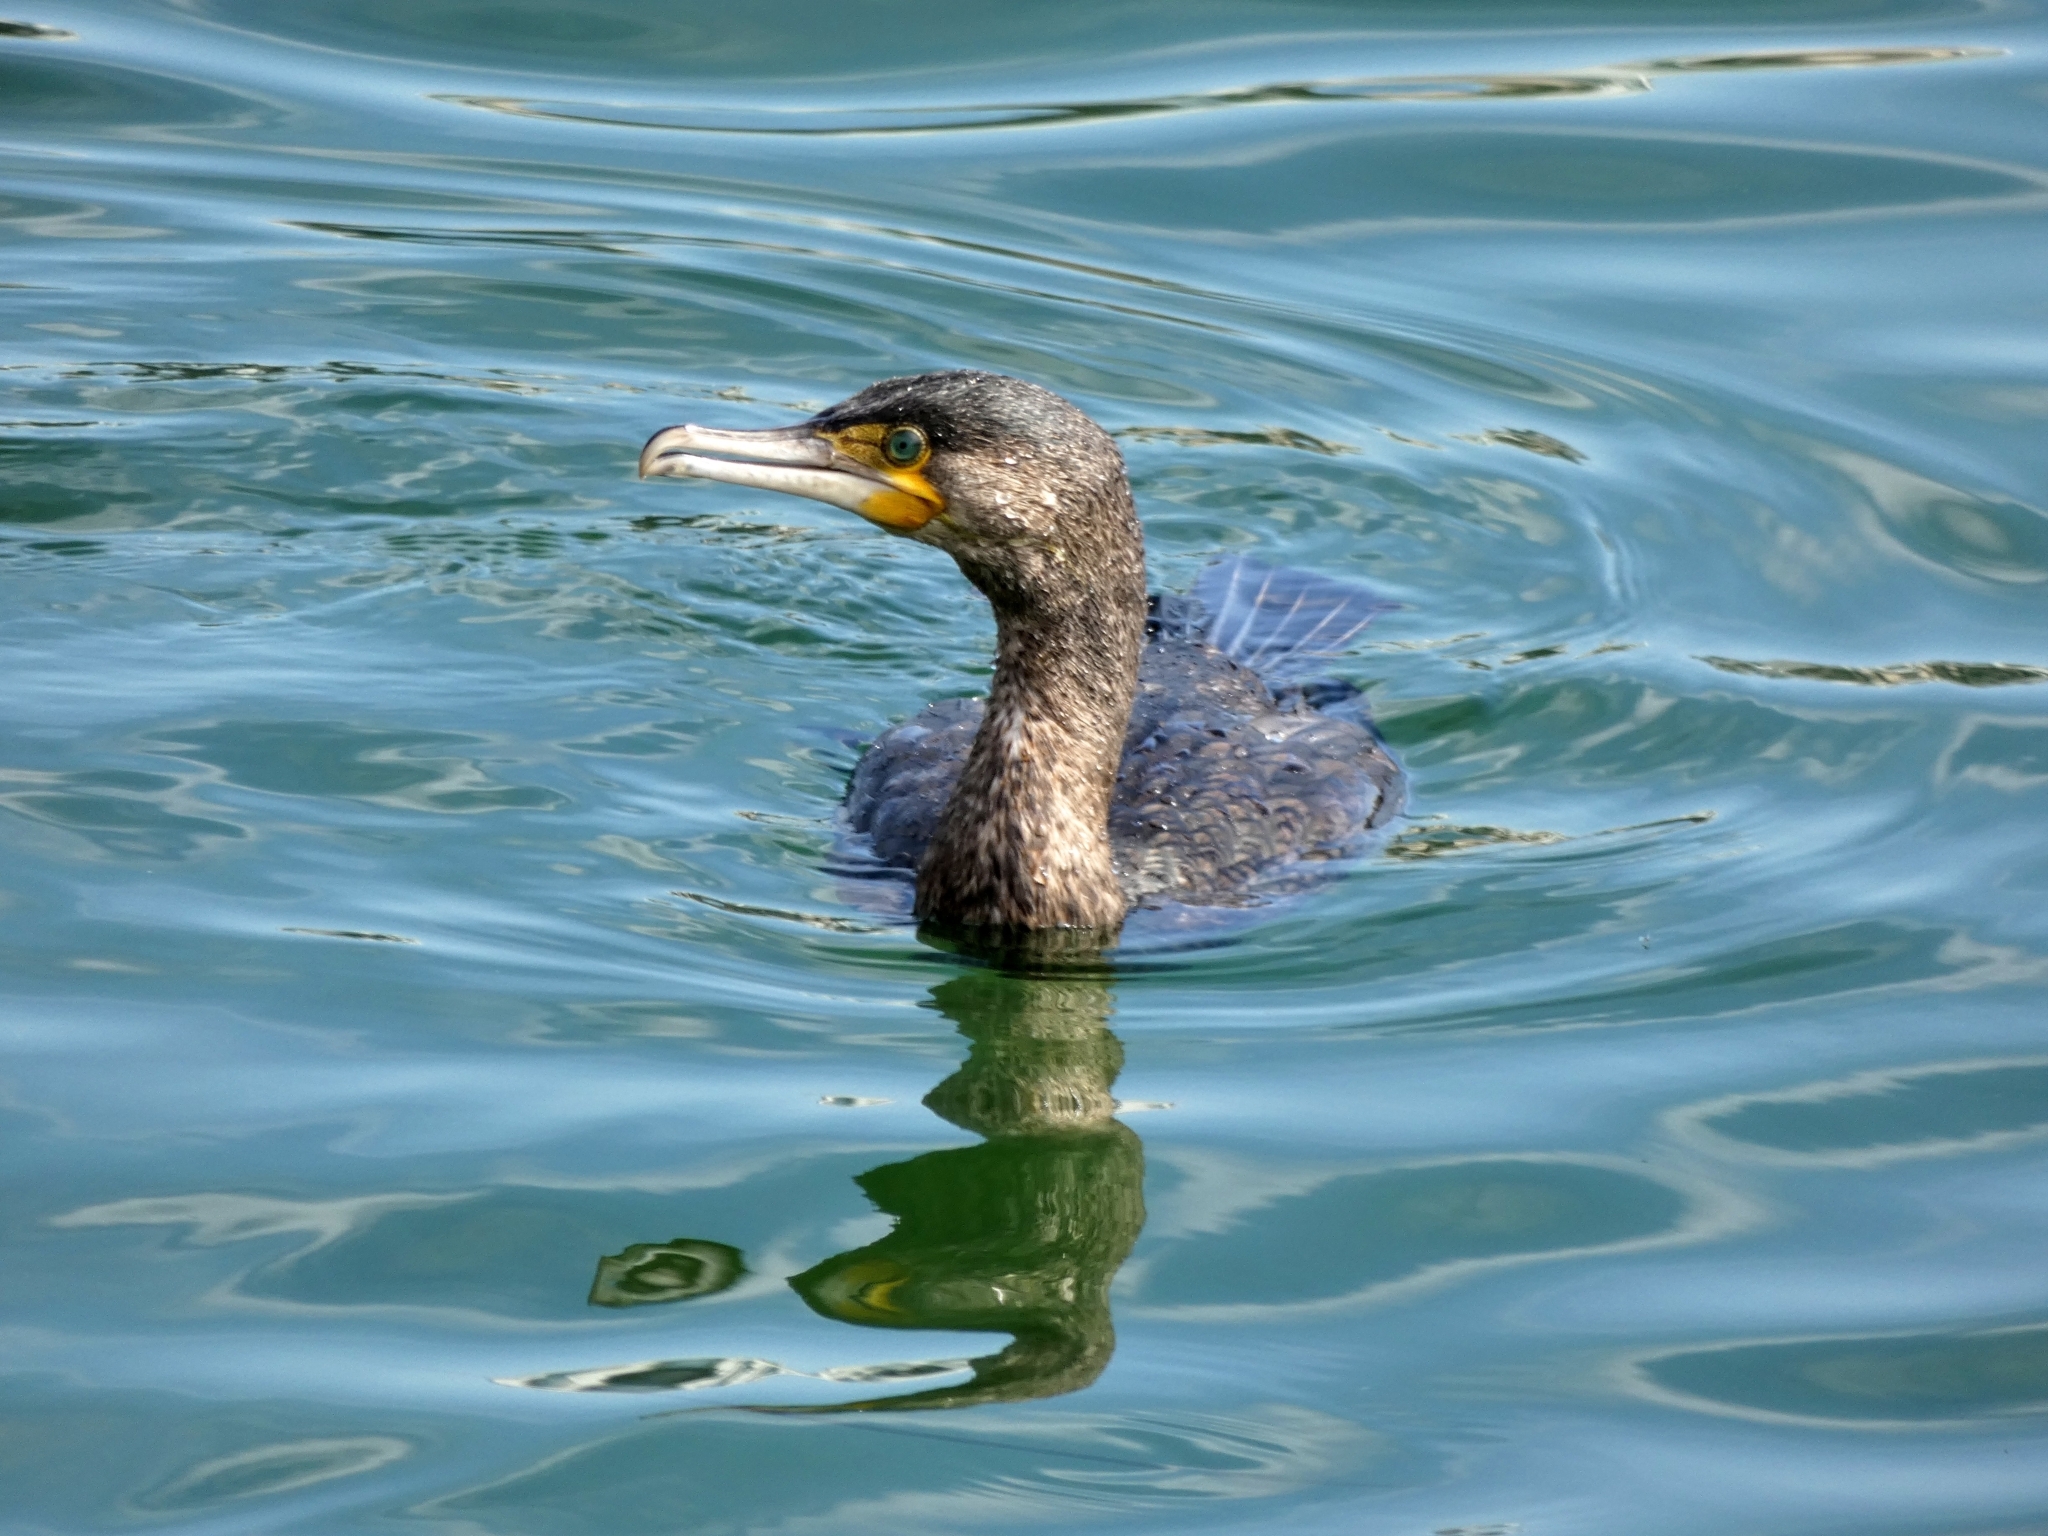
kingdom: Animalia
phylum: Chordata
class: Aves
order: Suliformes
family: Phalacrocoracidae
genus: Phalacrocorax
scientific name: Phalacrocorax carbo
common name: Great cormorant
